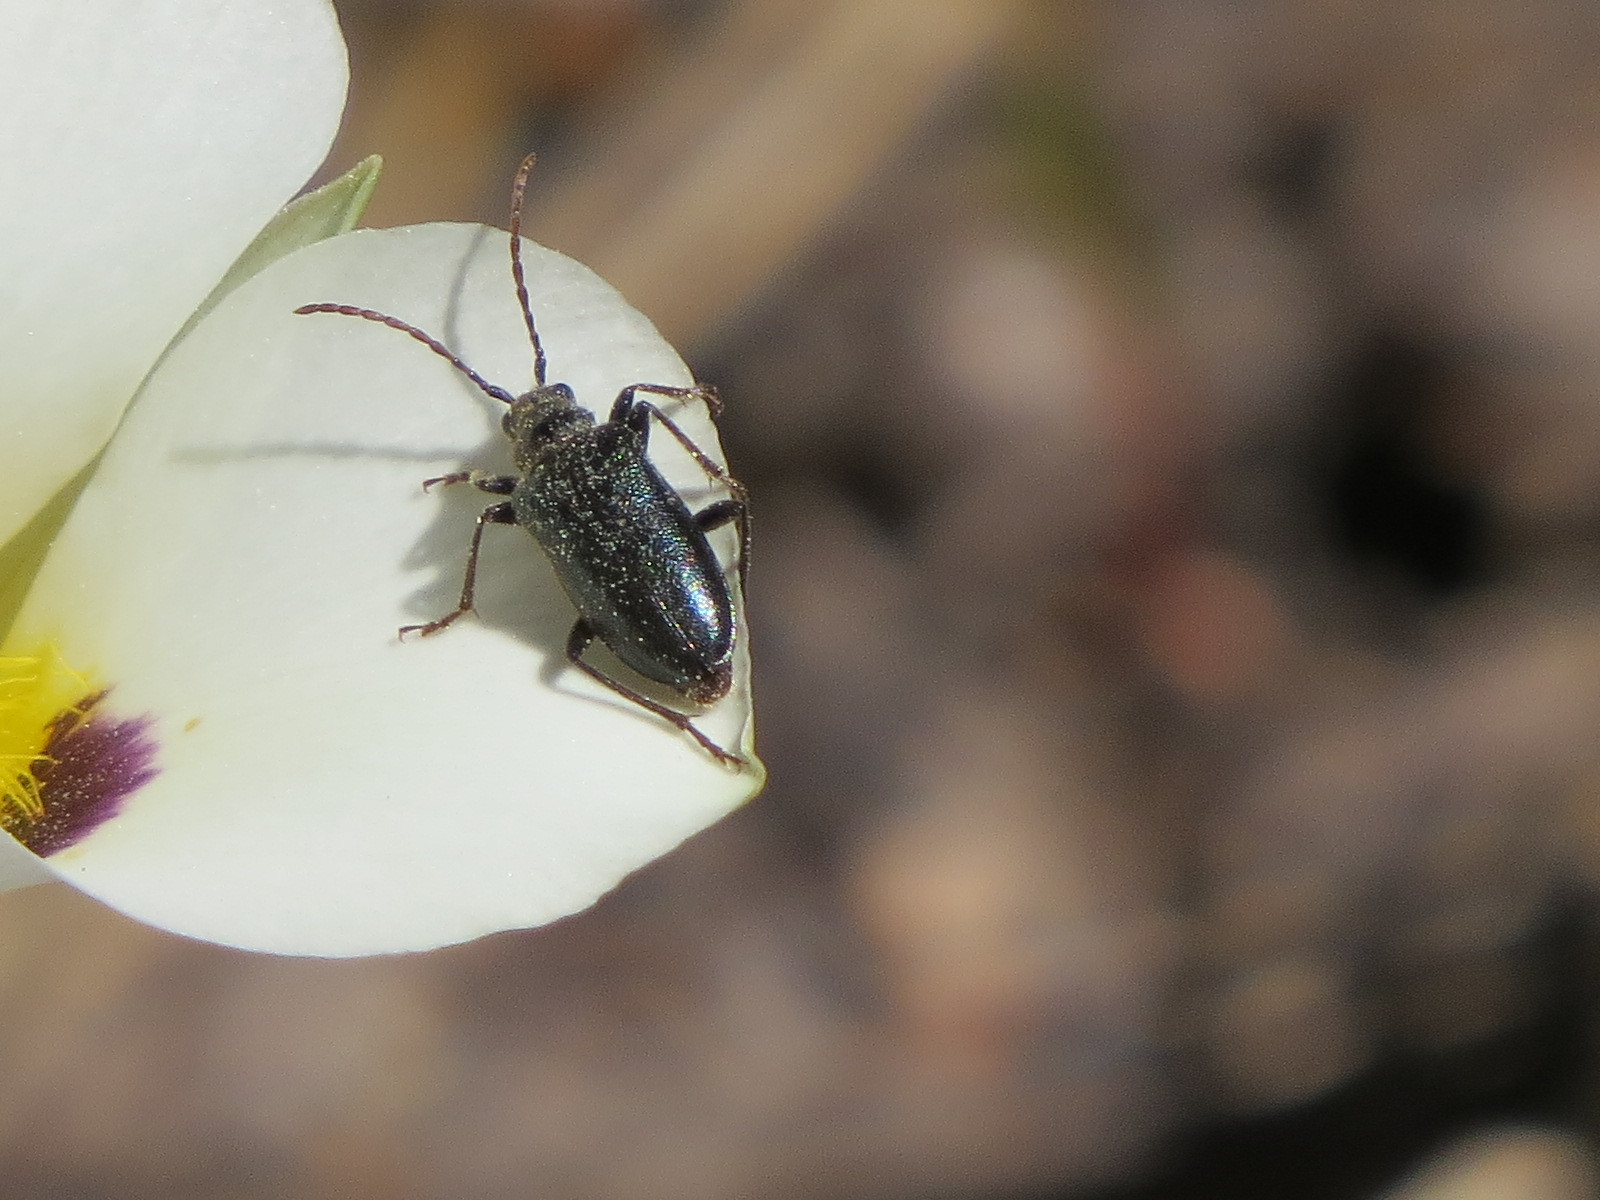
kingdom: Animalia
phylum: Arthropoda
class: Insecta
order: Coleoptera
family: Cerambycidae
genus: Brachysomida
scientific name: Brachysomida californica
